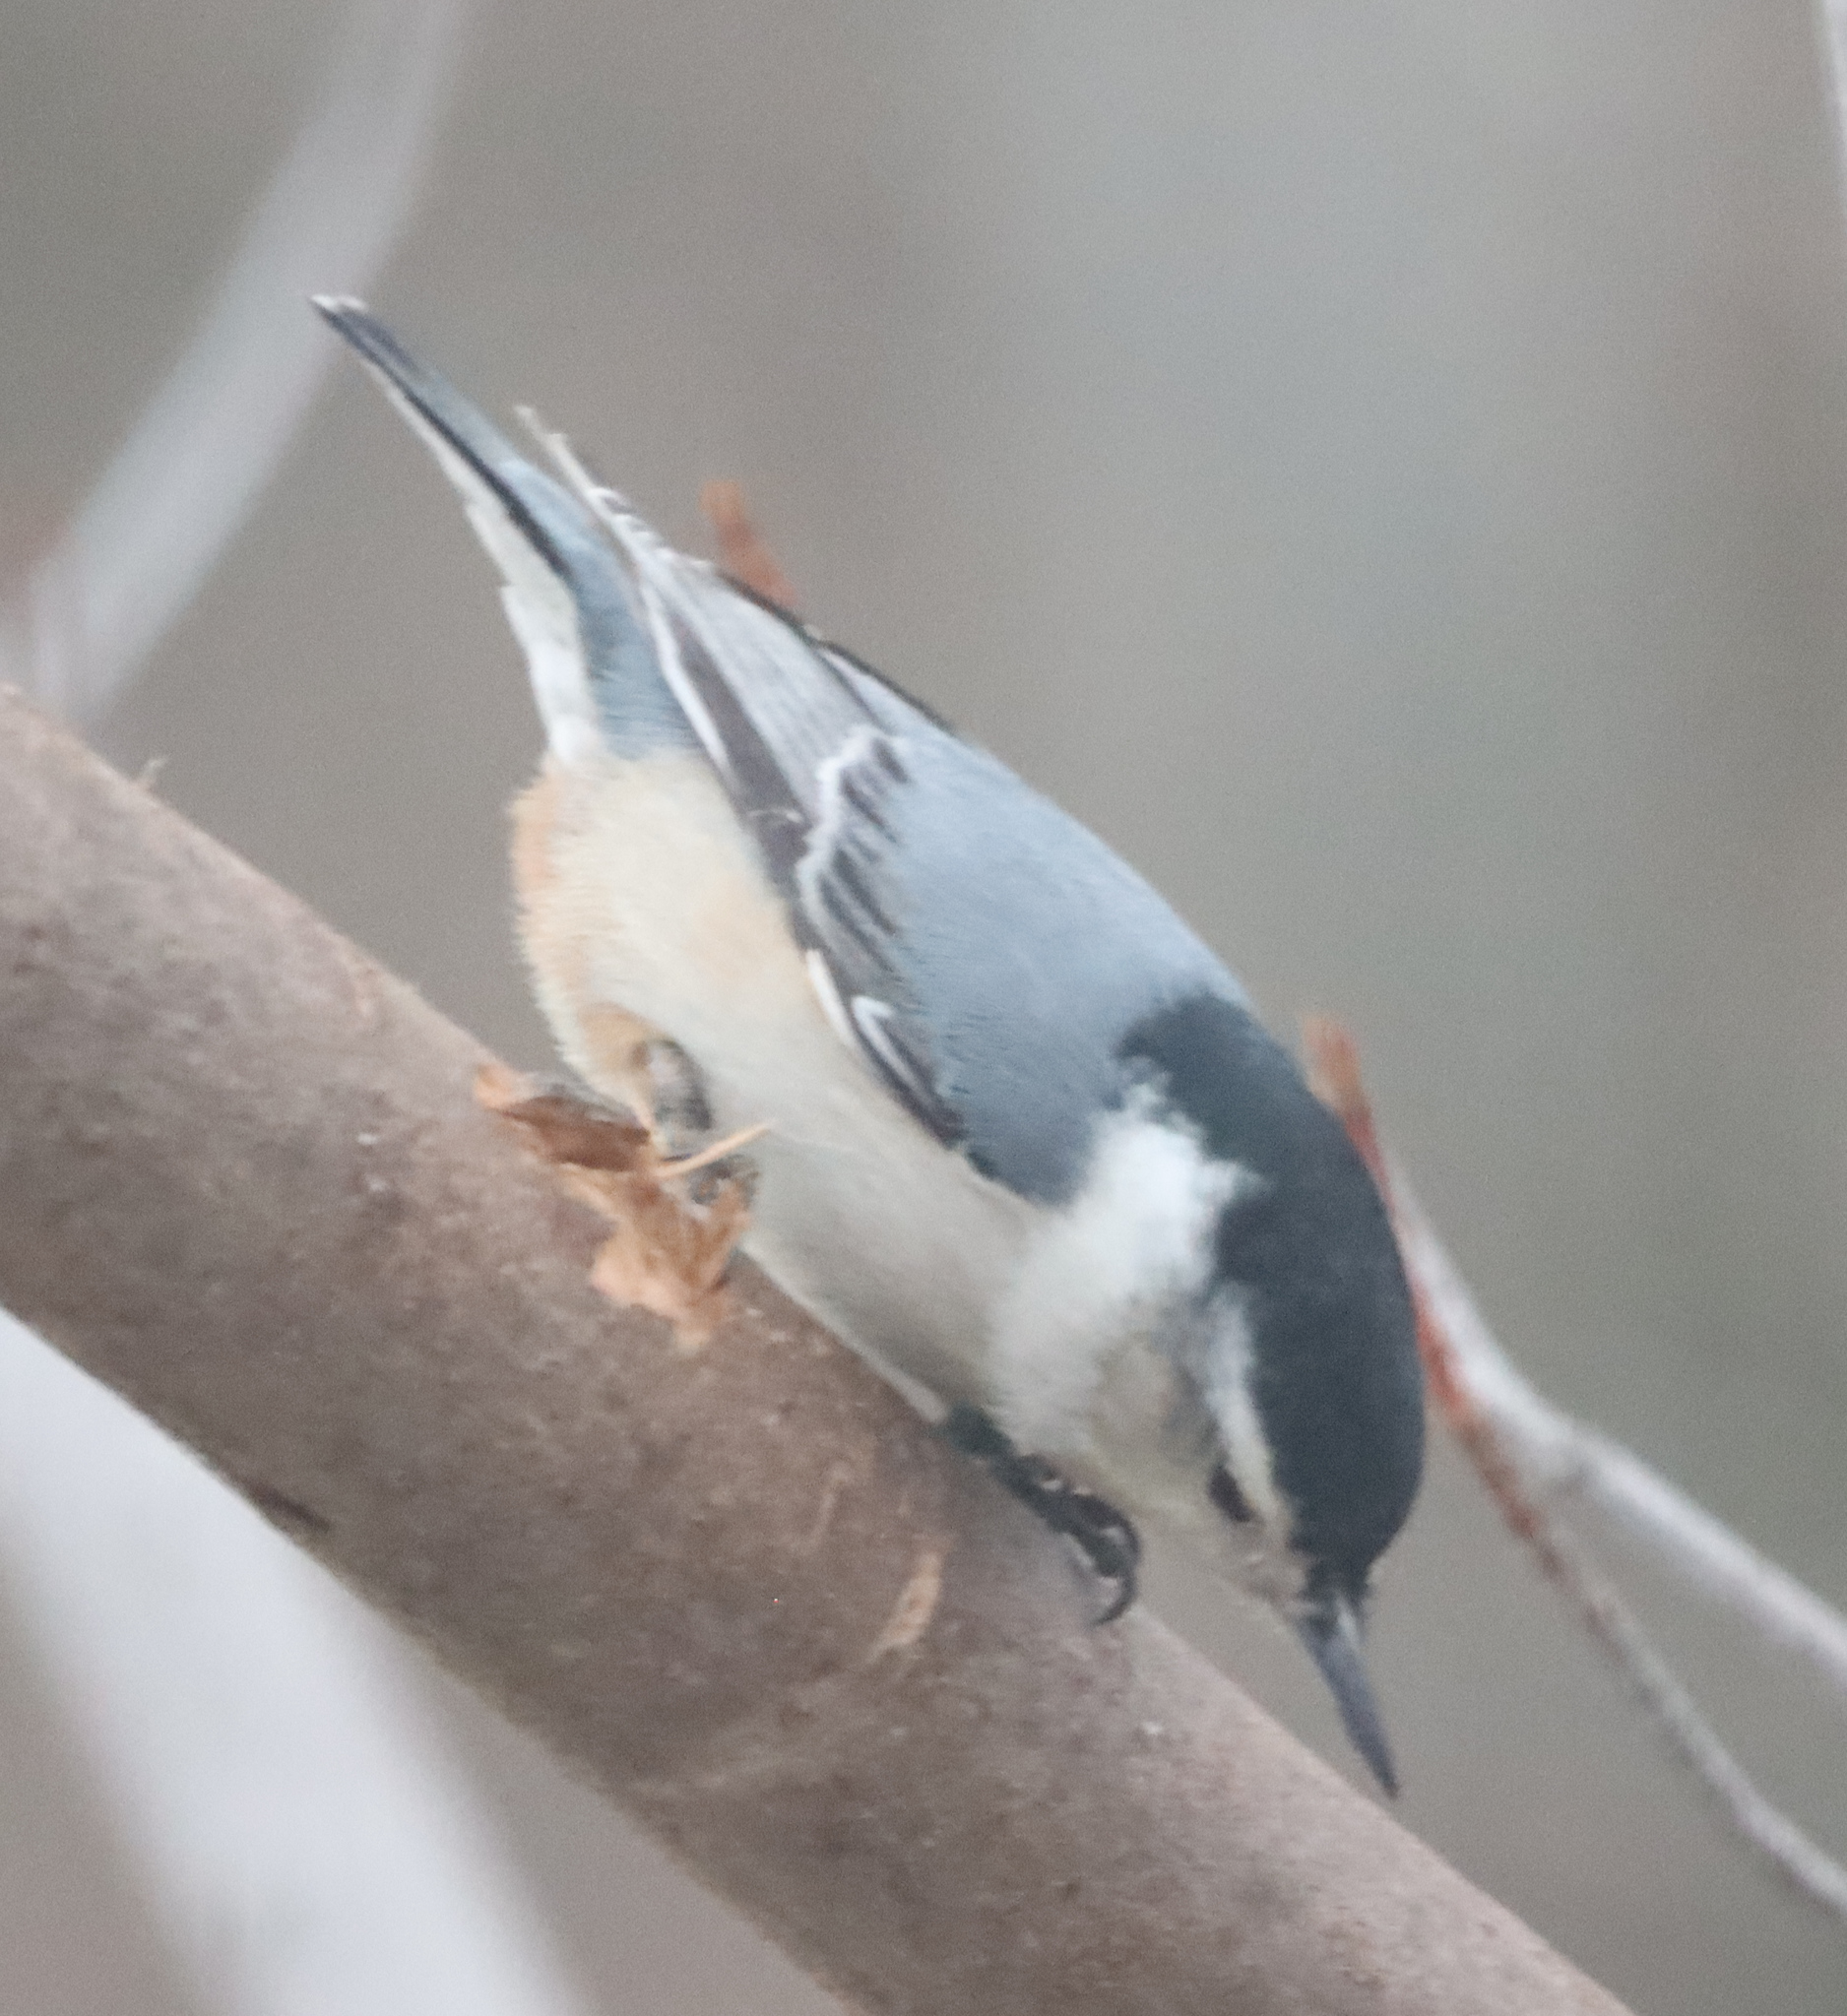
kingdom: Animalia
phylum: Chordata
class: Aves
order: Passeriformes
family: Sittidae
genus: Sitta
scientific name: Sitta carolinensis
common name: White-breasted nuthatch
